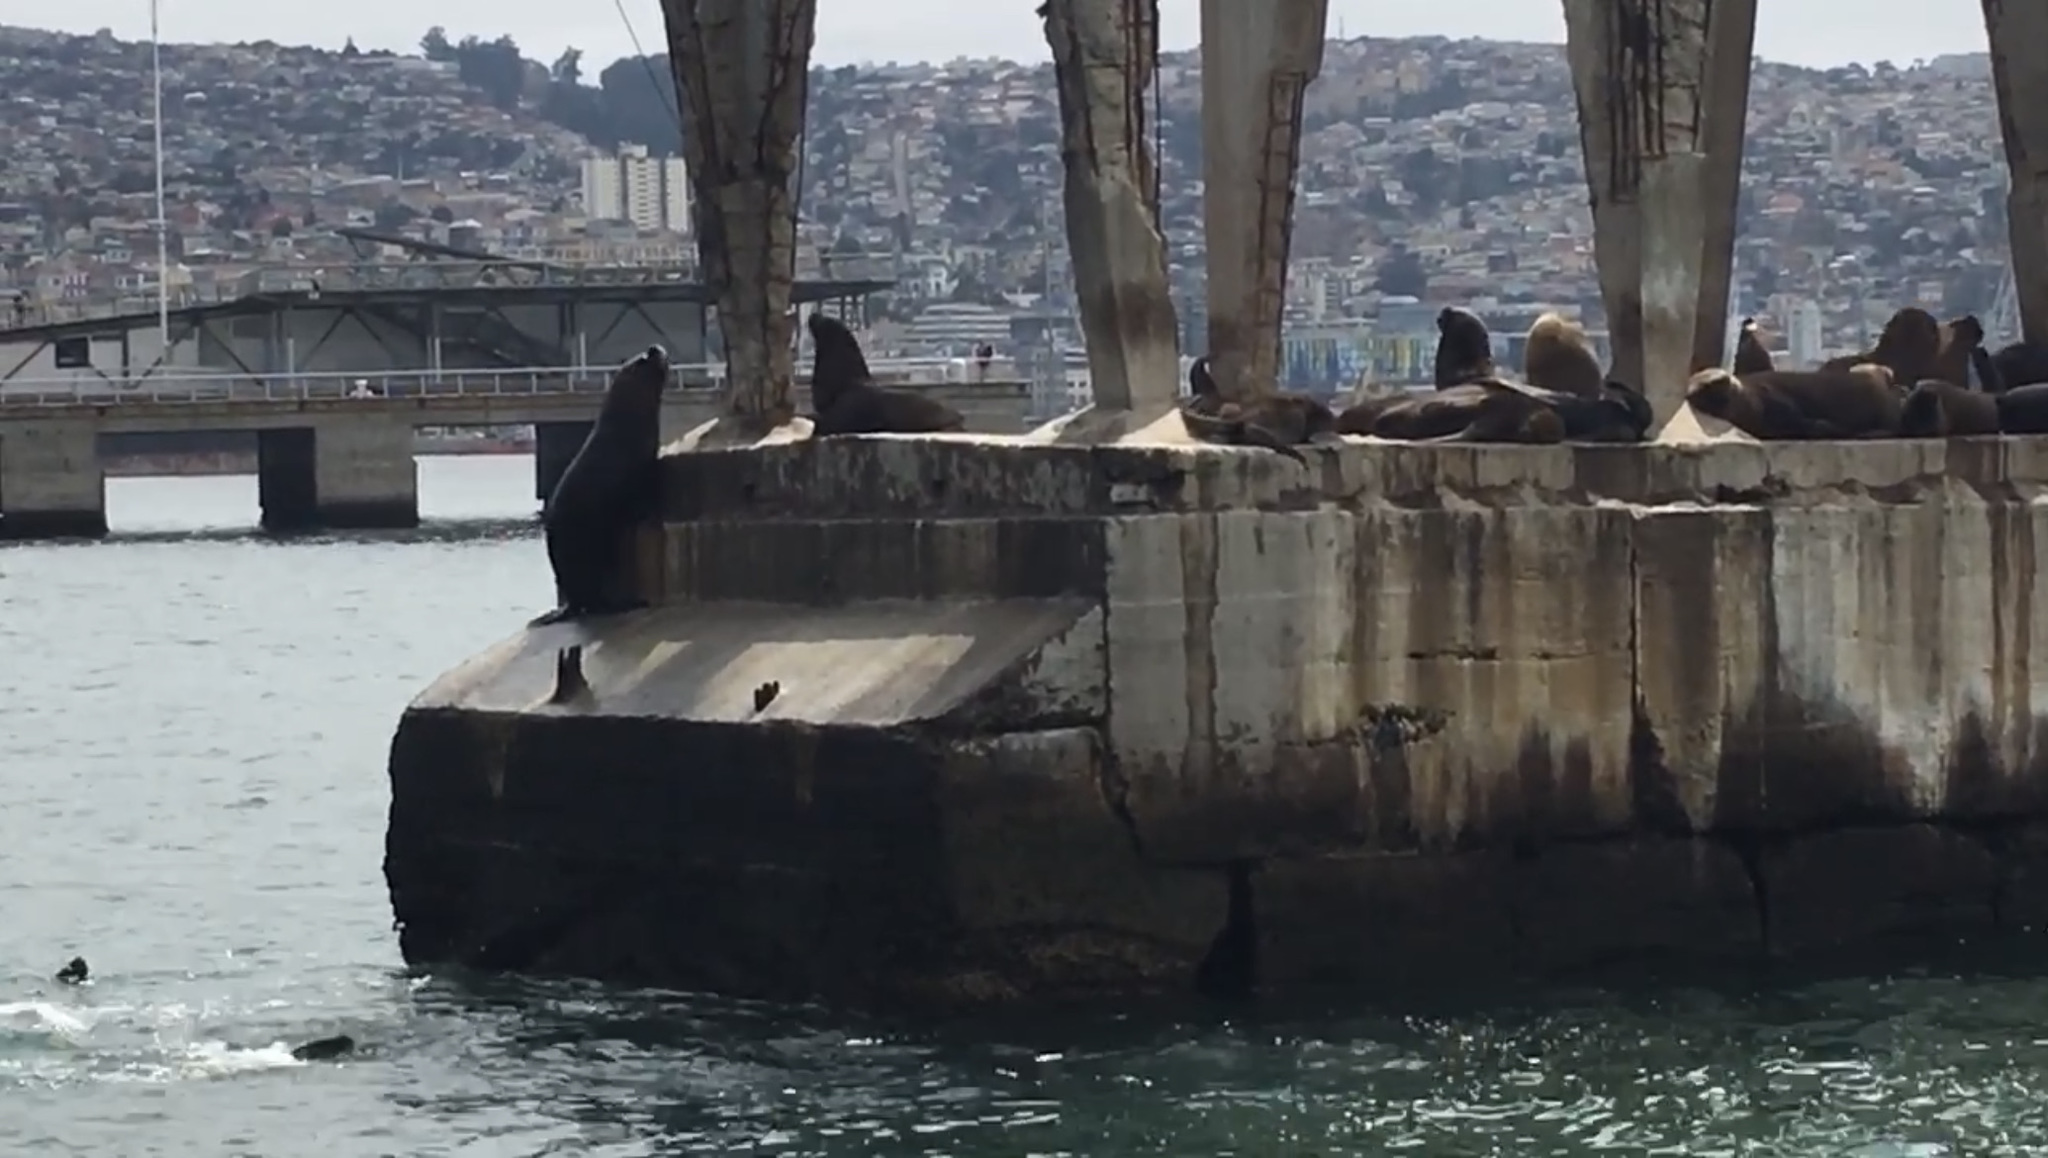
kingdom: Animalia
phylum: Chordata
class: Mammalia
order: Carnivora
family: Otariidae
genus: Otaria
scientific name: Otaria byronia
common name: South american sea lion
